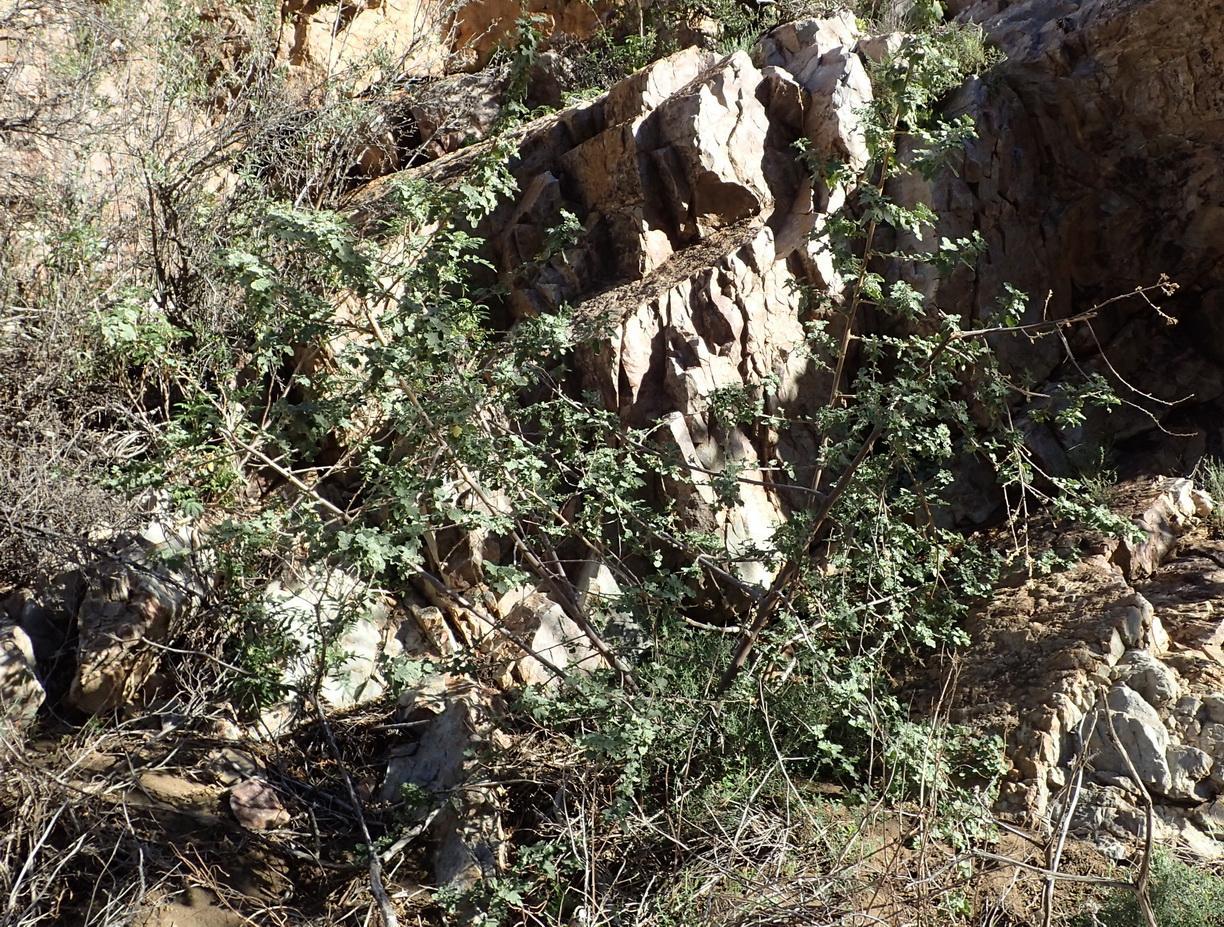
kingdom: Plantae
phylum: Tracheophyta
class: Magnoliopsida
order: Malvales
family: Malvaceae
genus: Anisodontea
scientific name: Anisodontea reflexa
